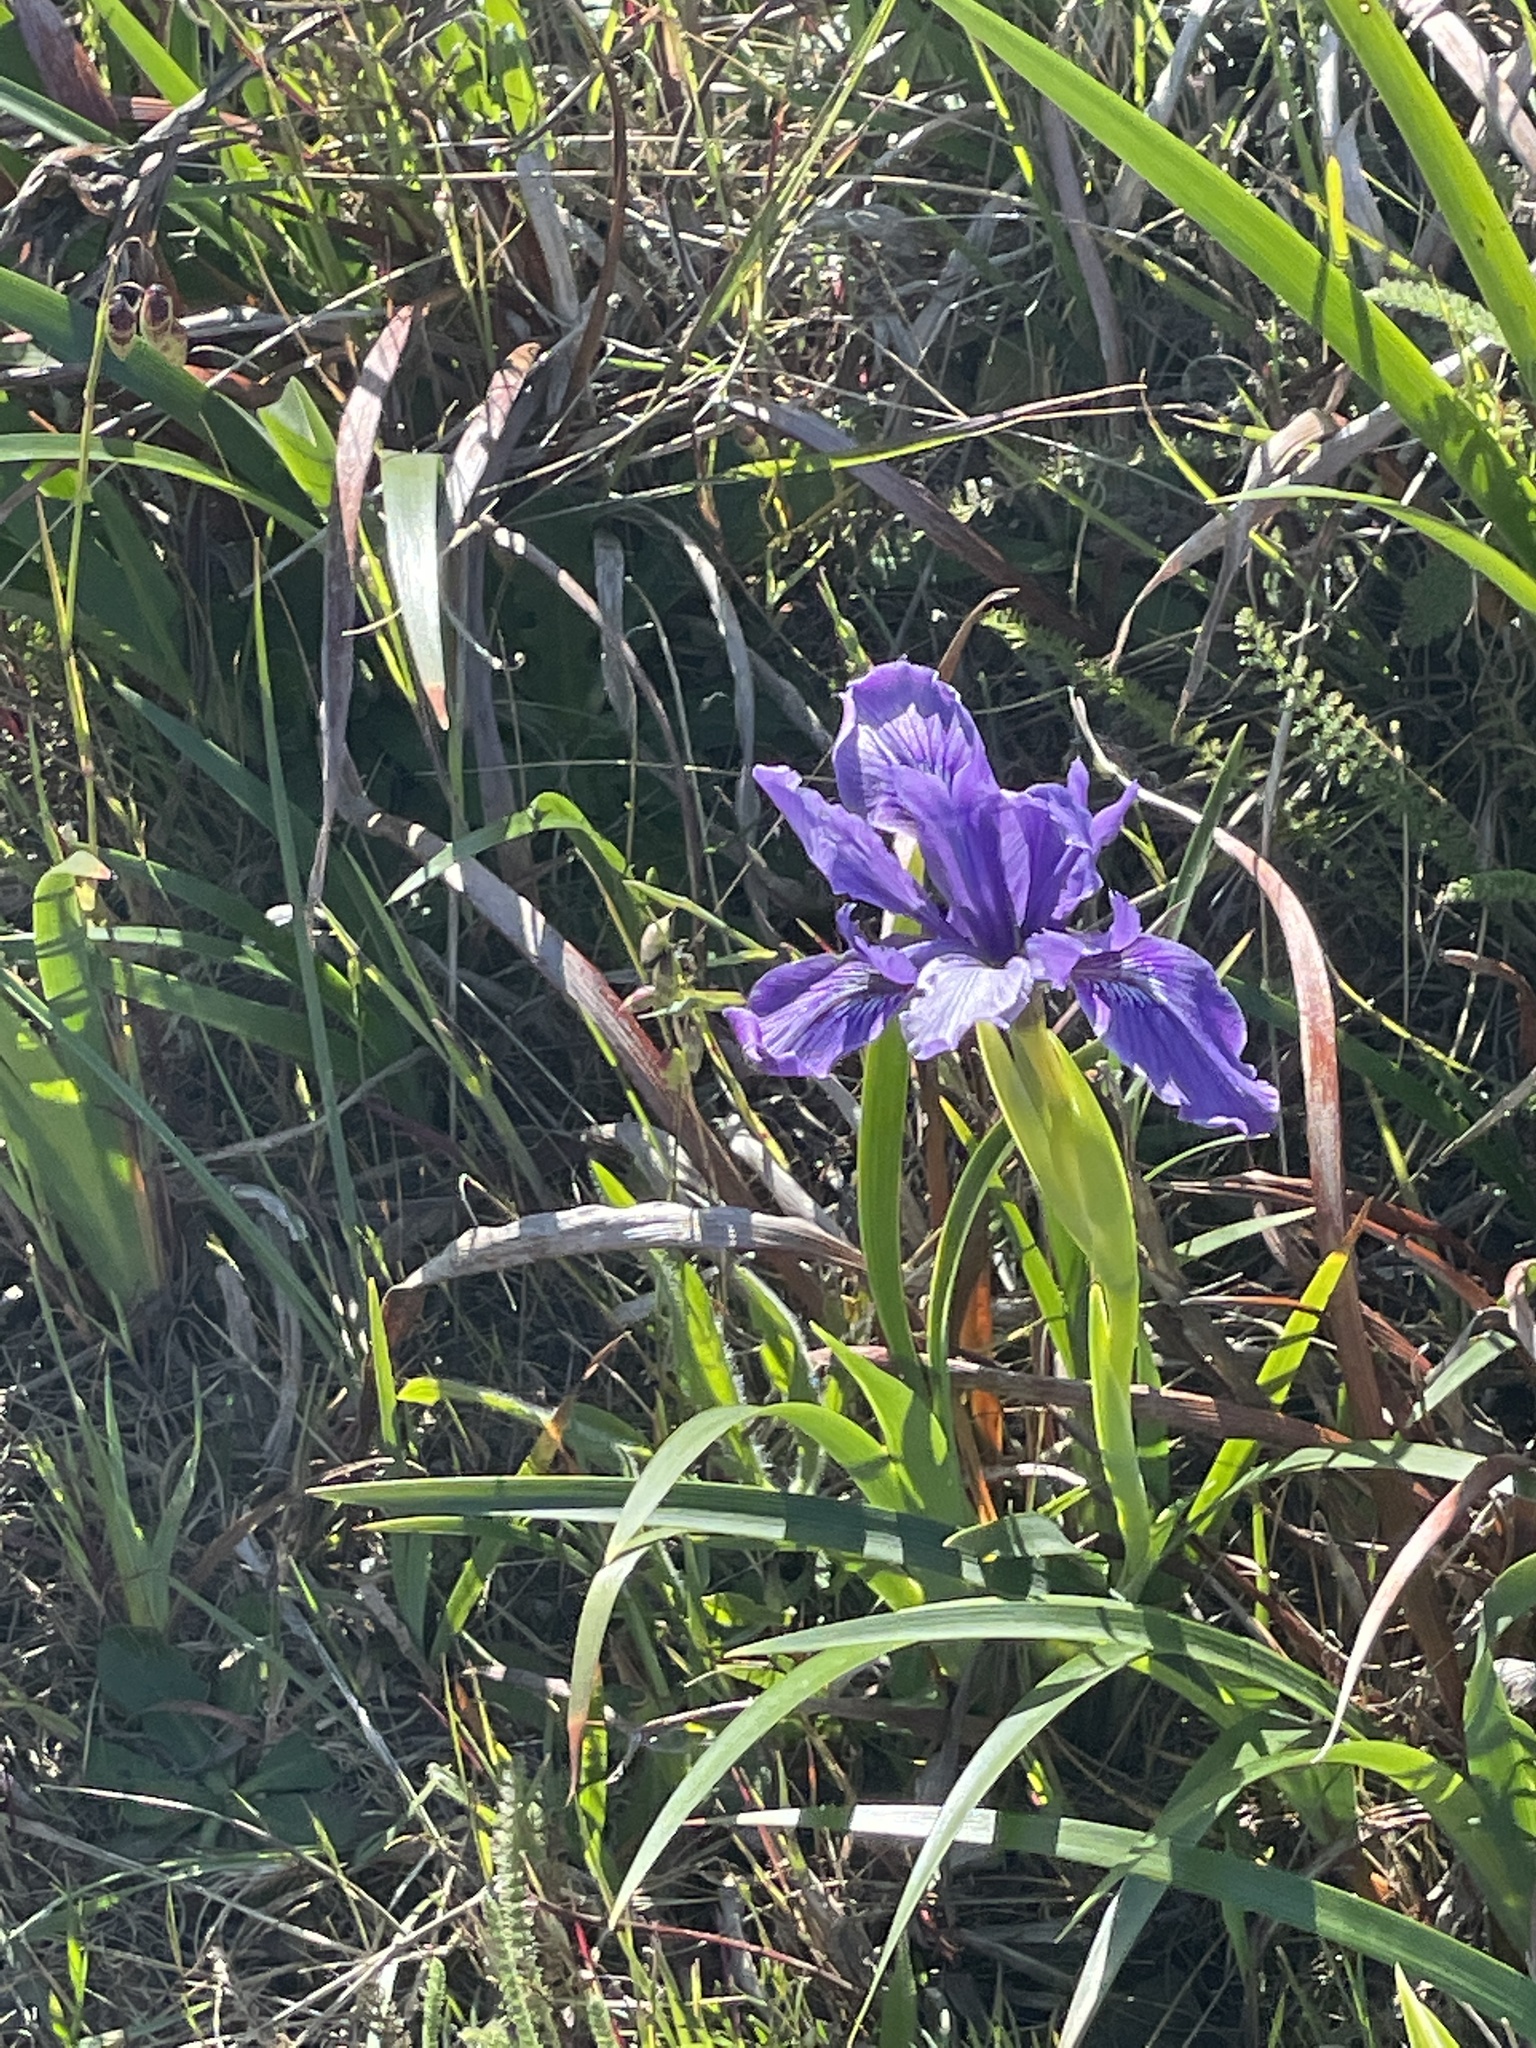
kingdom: Plantae
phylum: Tracheophyta
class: Liliopsida
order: Asparagales
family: Iridaceae
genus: Iris
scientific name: Iris douglasiana
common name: Marin iris
